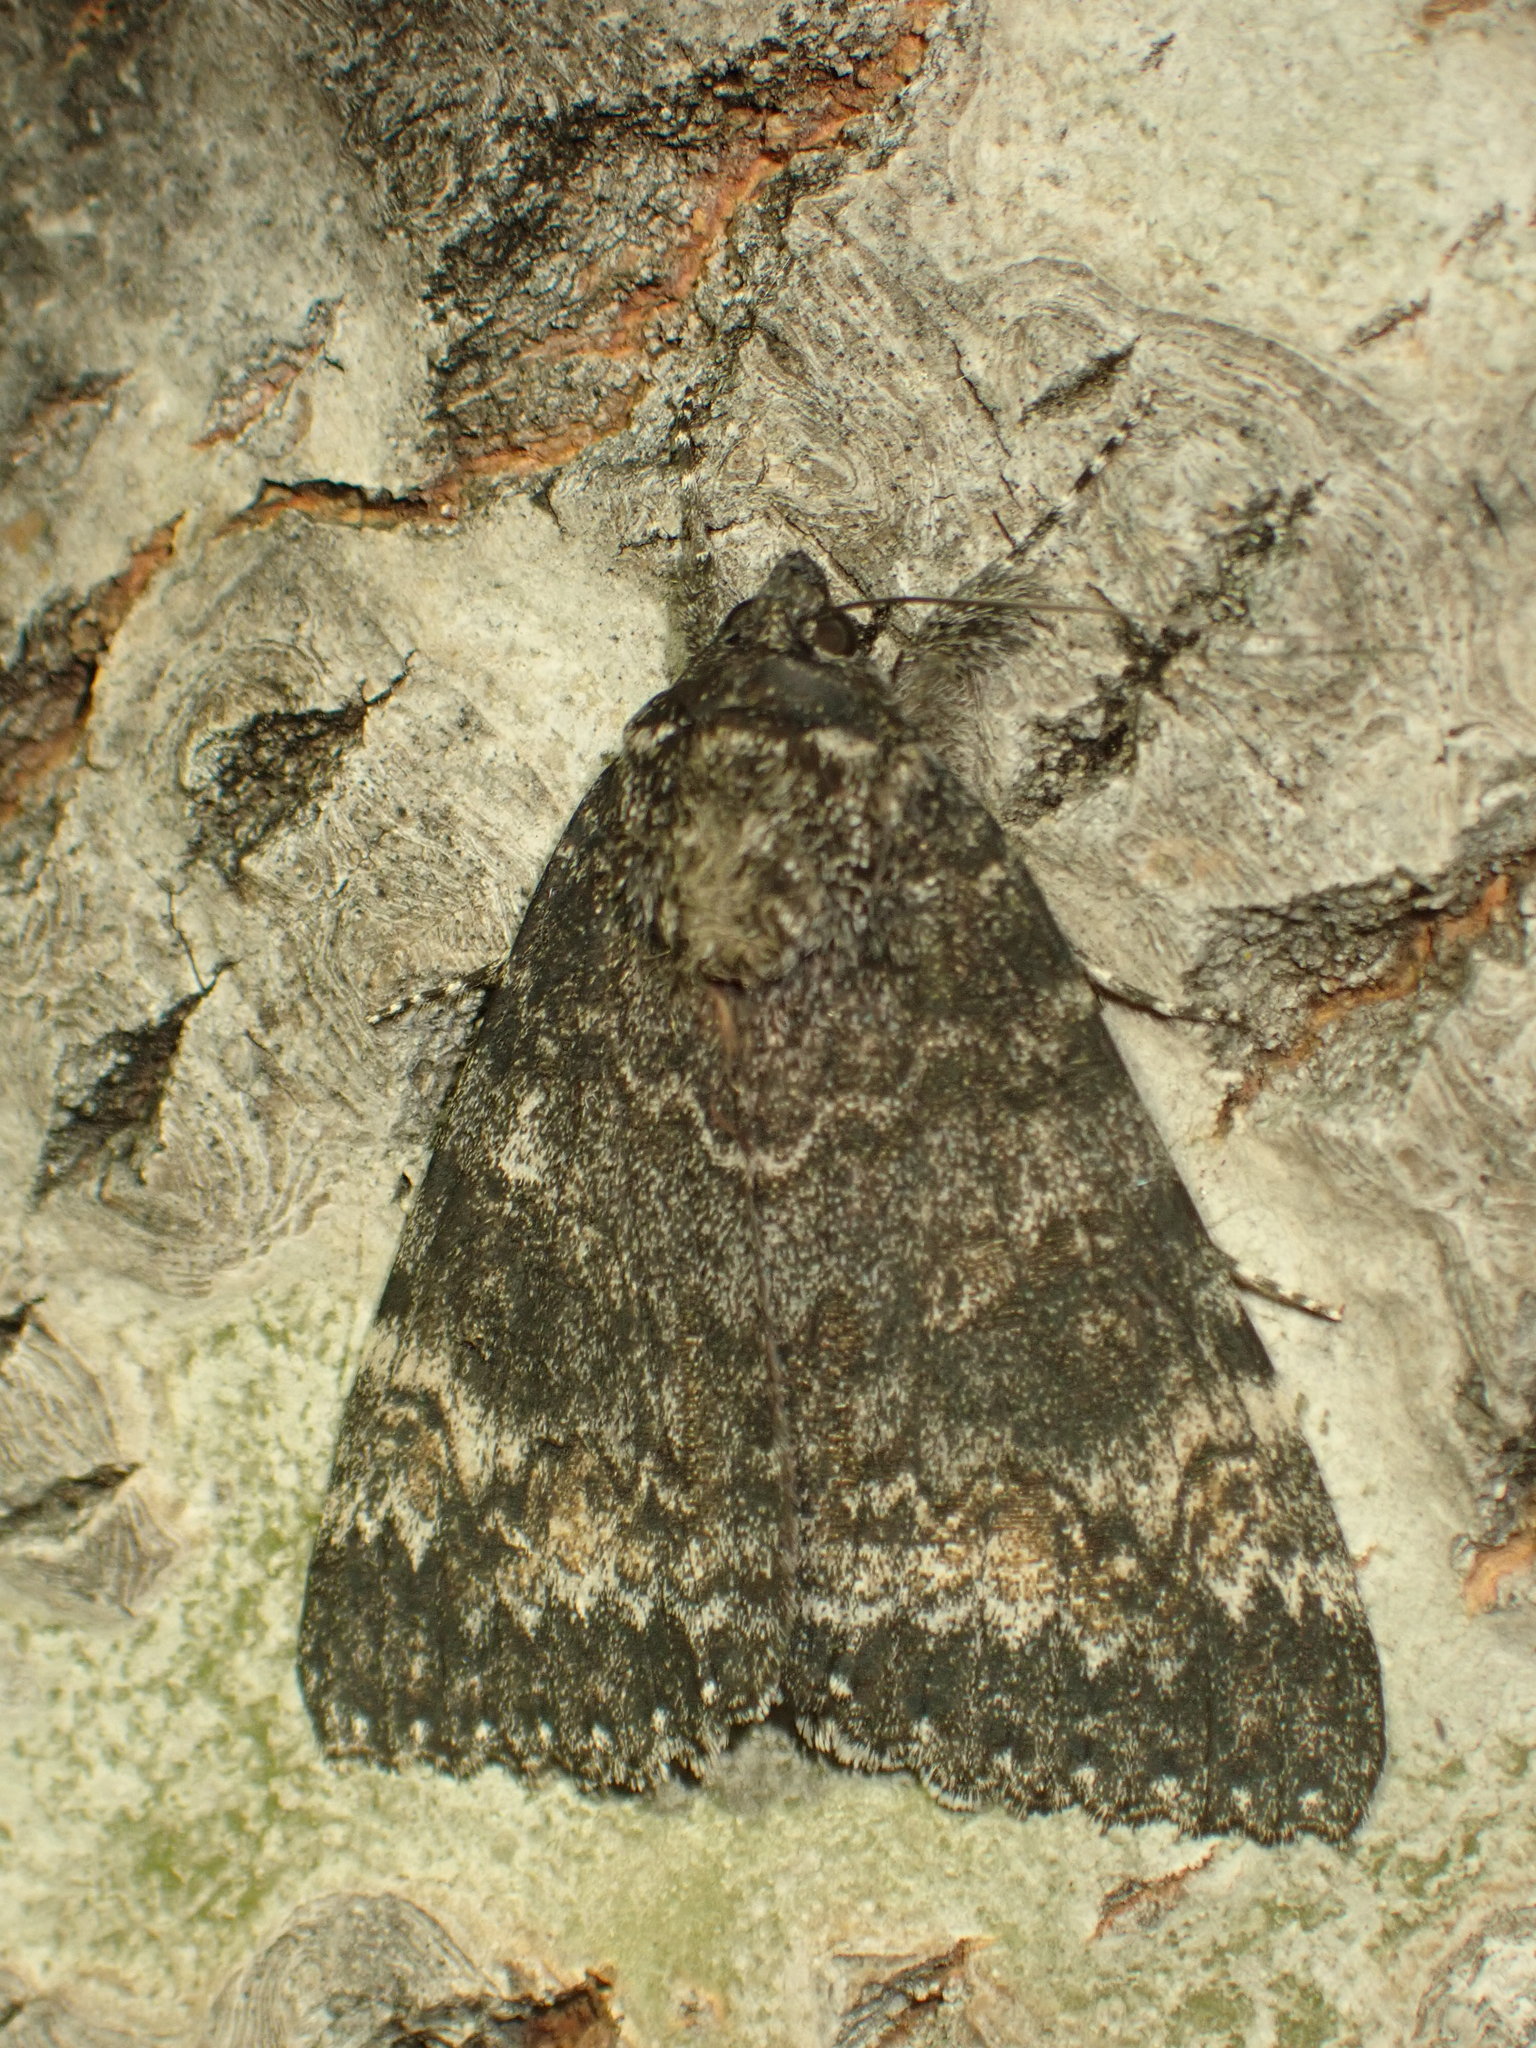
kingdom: Animalia
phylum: Arthropoda
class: Insecta
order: Lepidoptera
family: Erebidae
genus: Catocala
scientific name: Catocala briseis
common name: Briseis underwing
